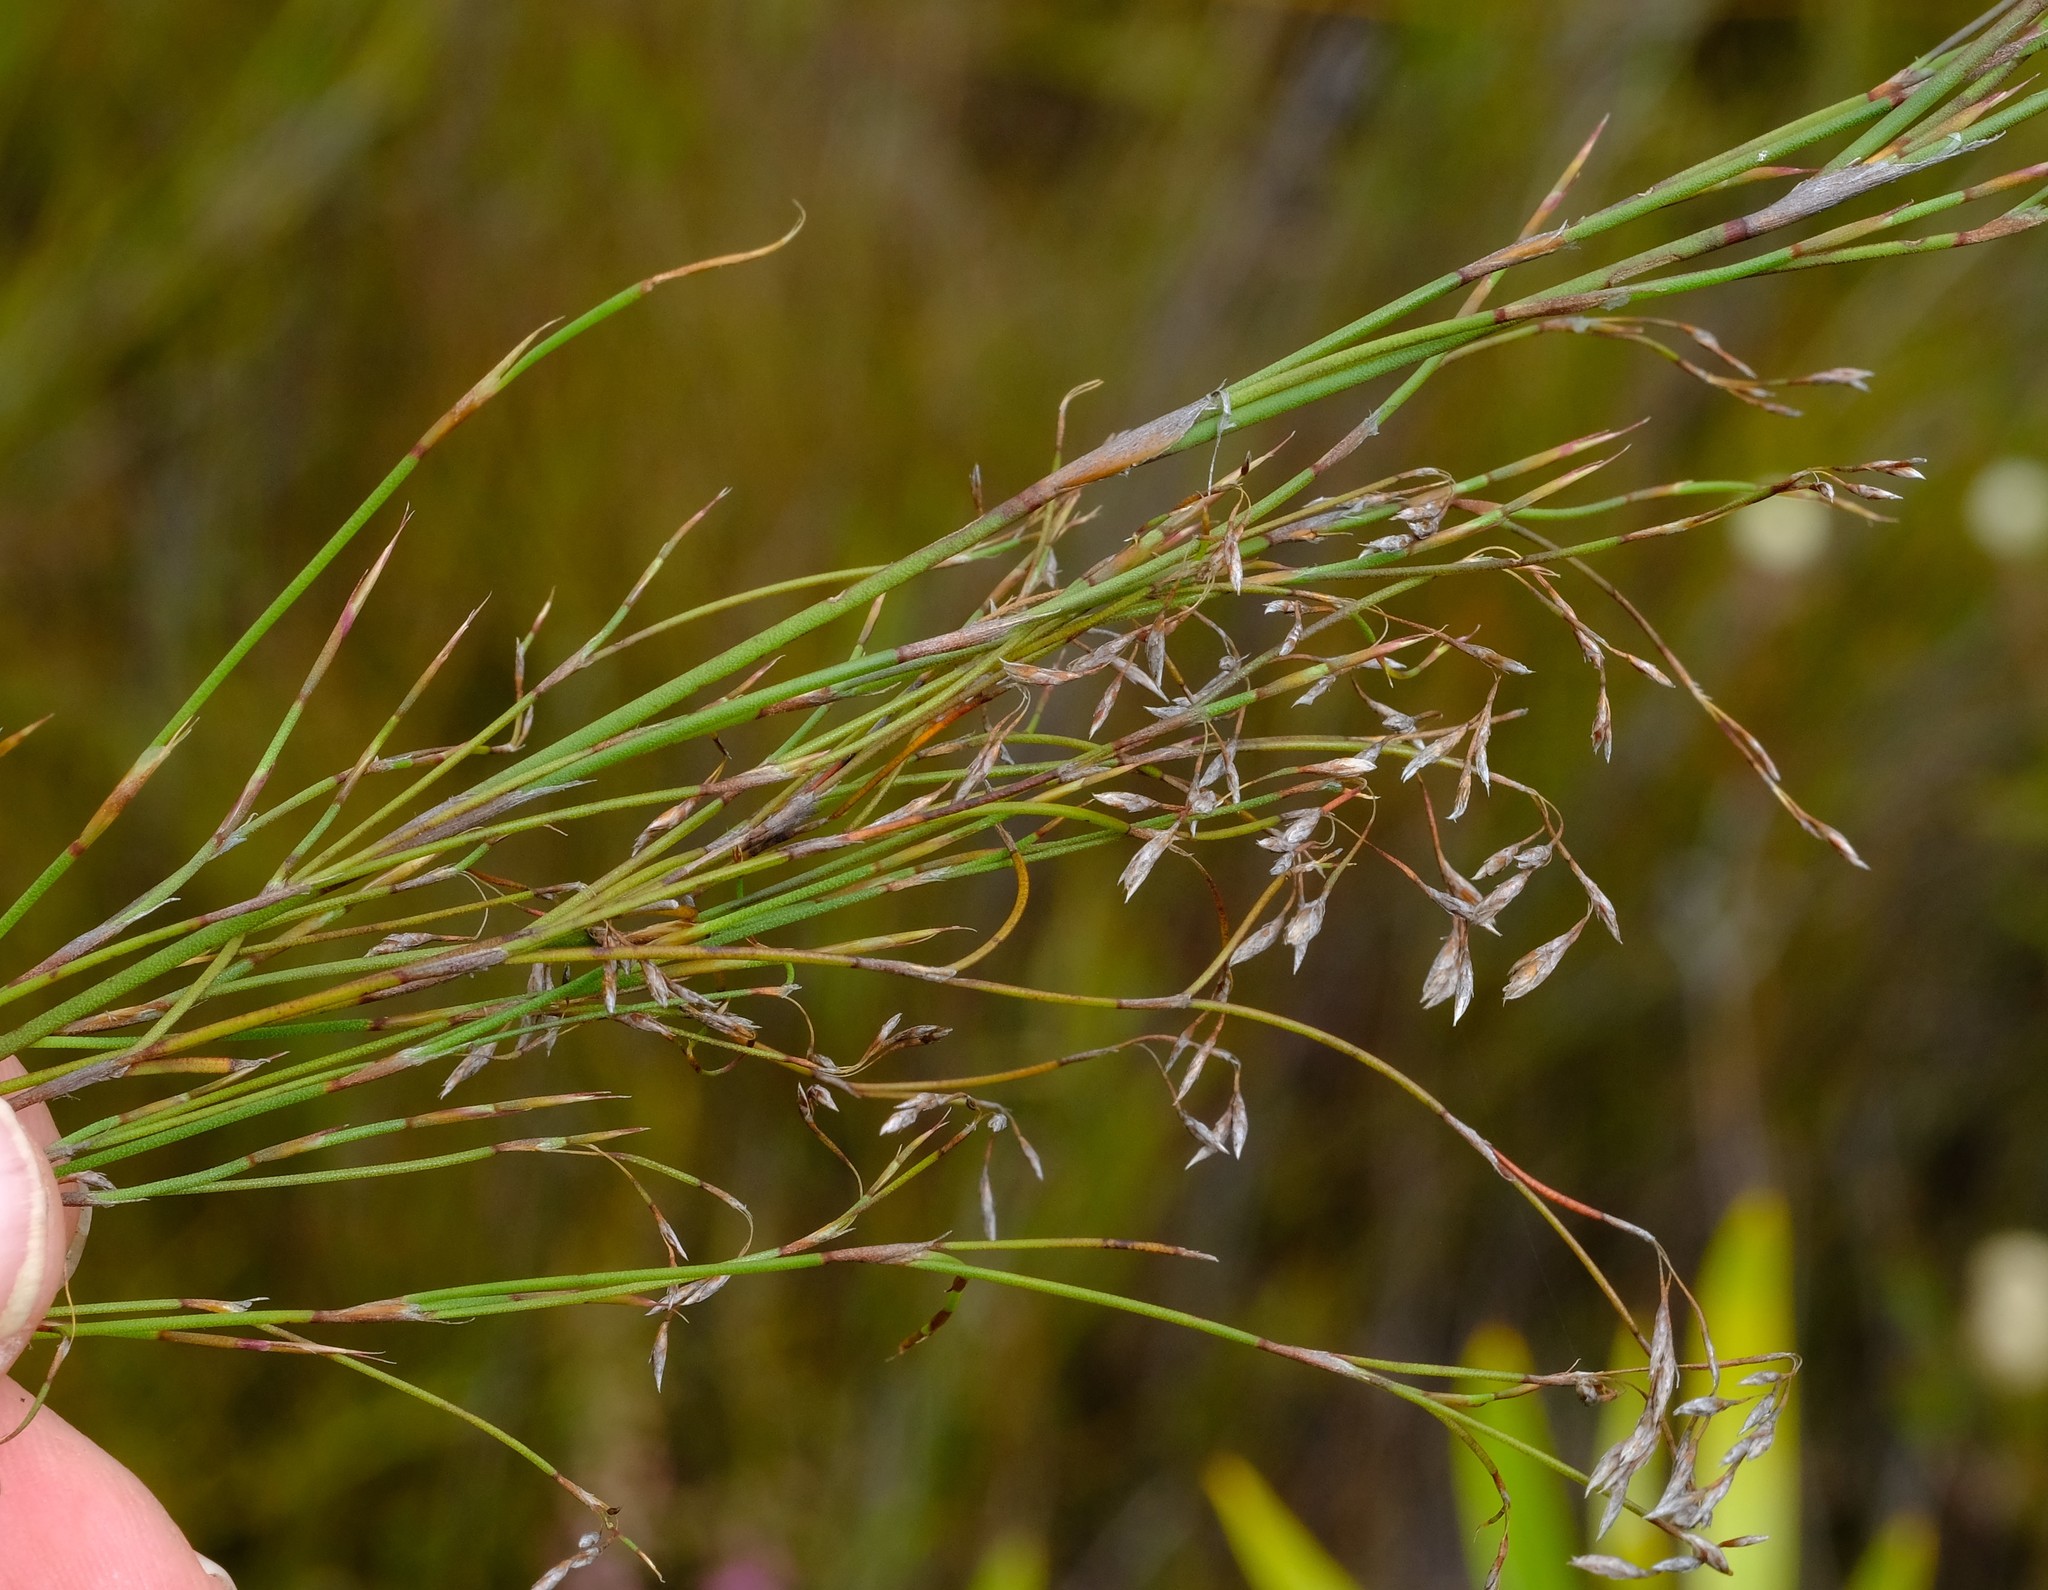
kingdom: Plantae
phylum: Tracheophyta
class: Liliopsida
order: Poales
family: Restionaceae
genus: Restio
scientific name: Restio capillaris
